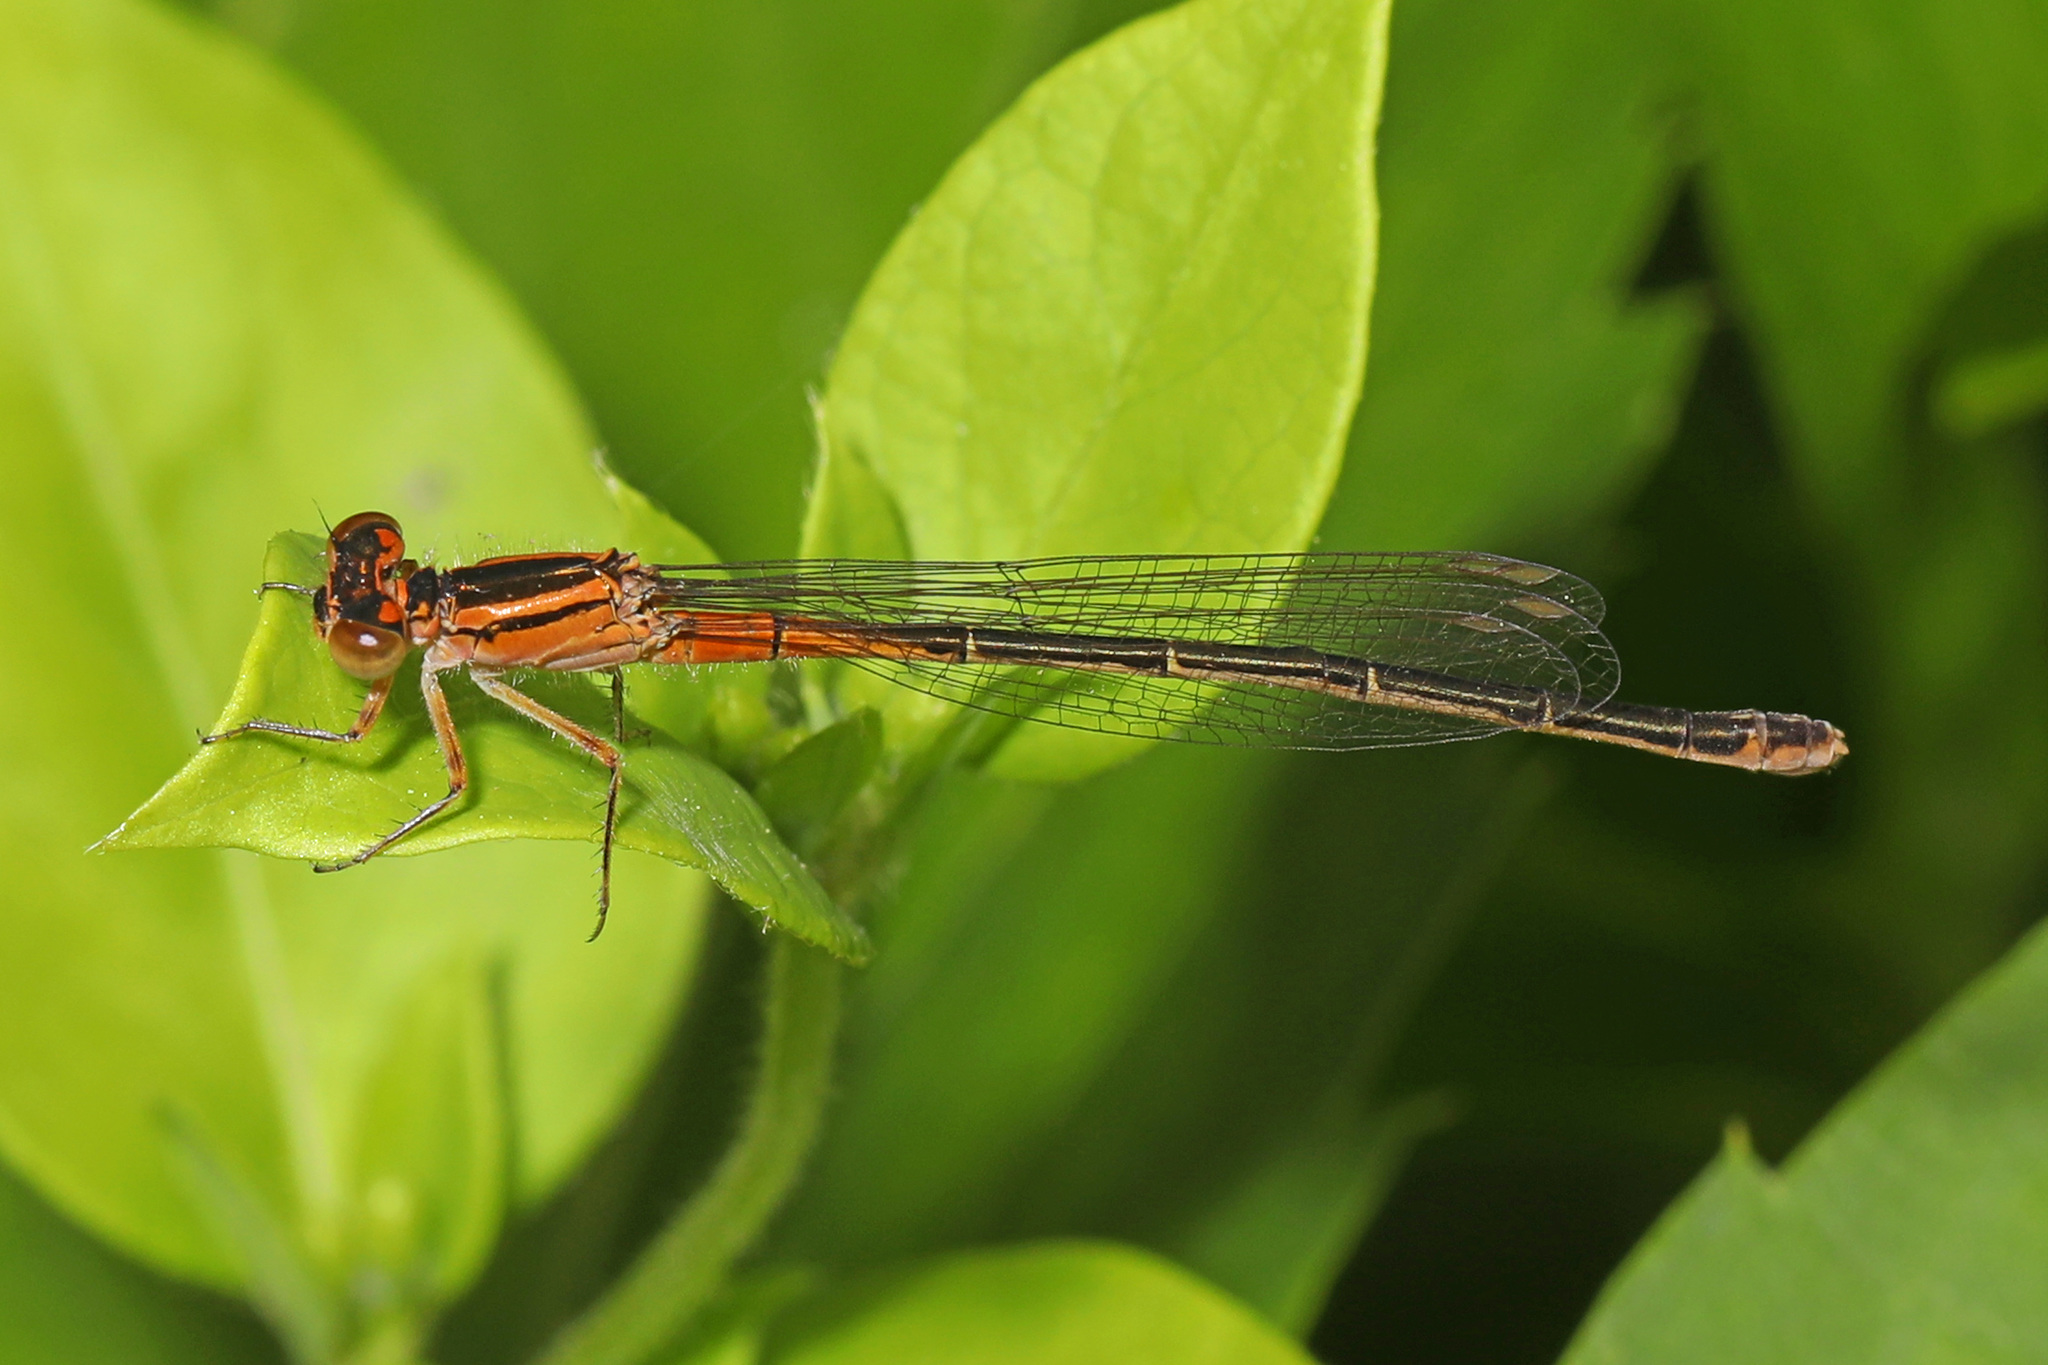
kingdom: Animalia
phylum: Arthropoda
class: Insecta
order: Odonata
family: Coenagrionidae
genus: Ischnura
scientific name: Ischnura verticalis
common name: Eastern forktail
